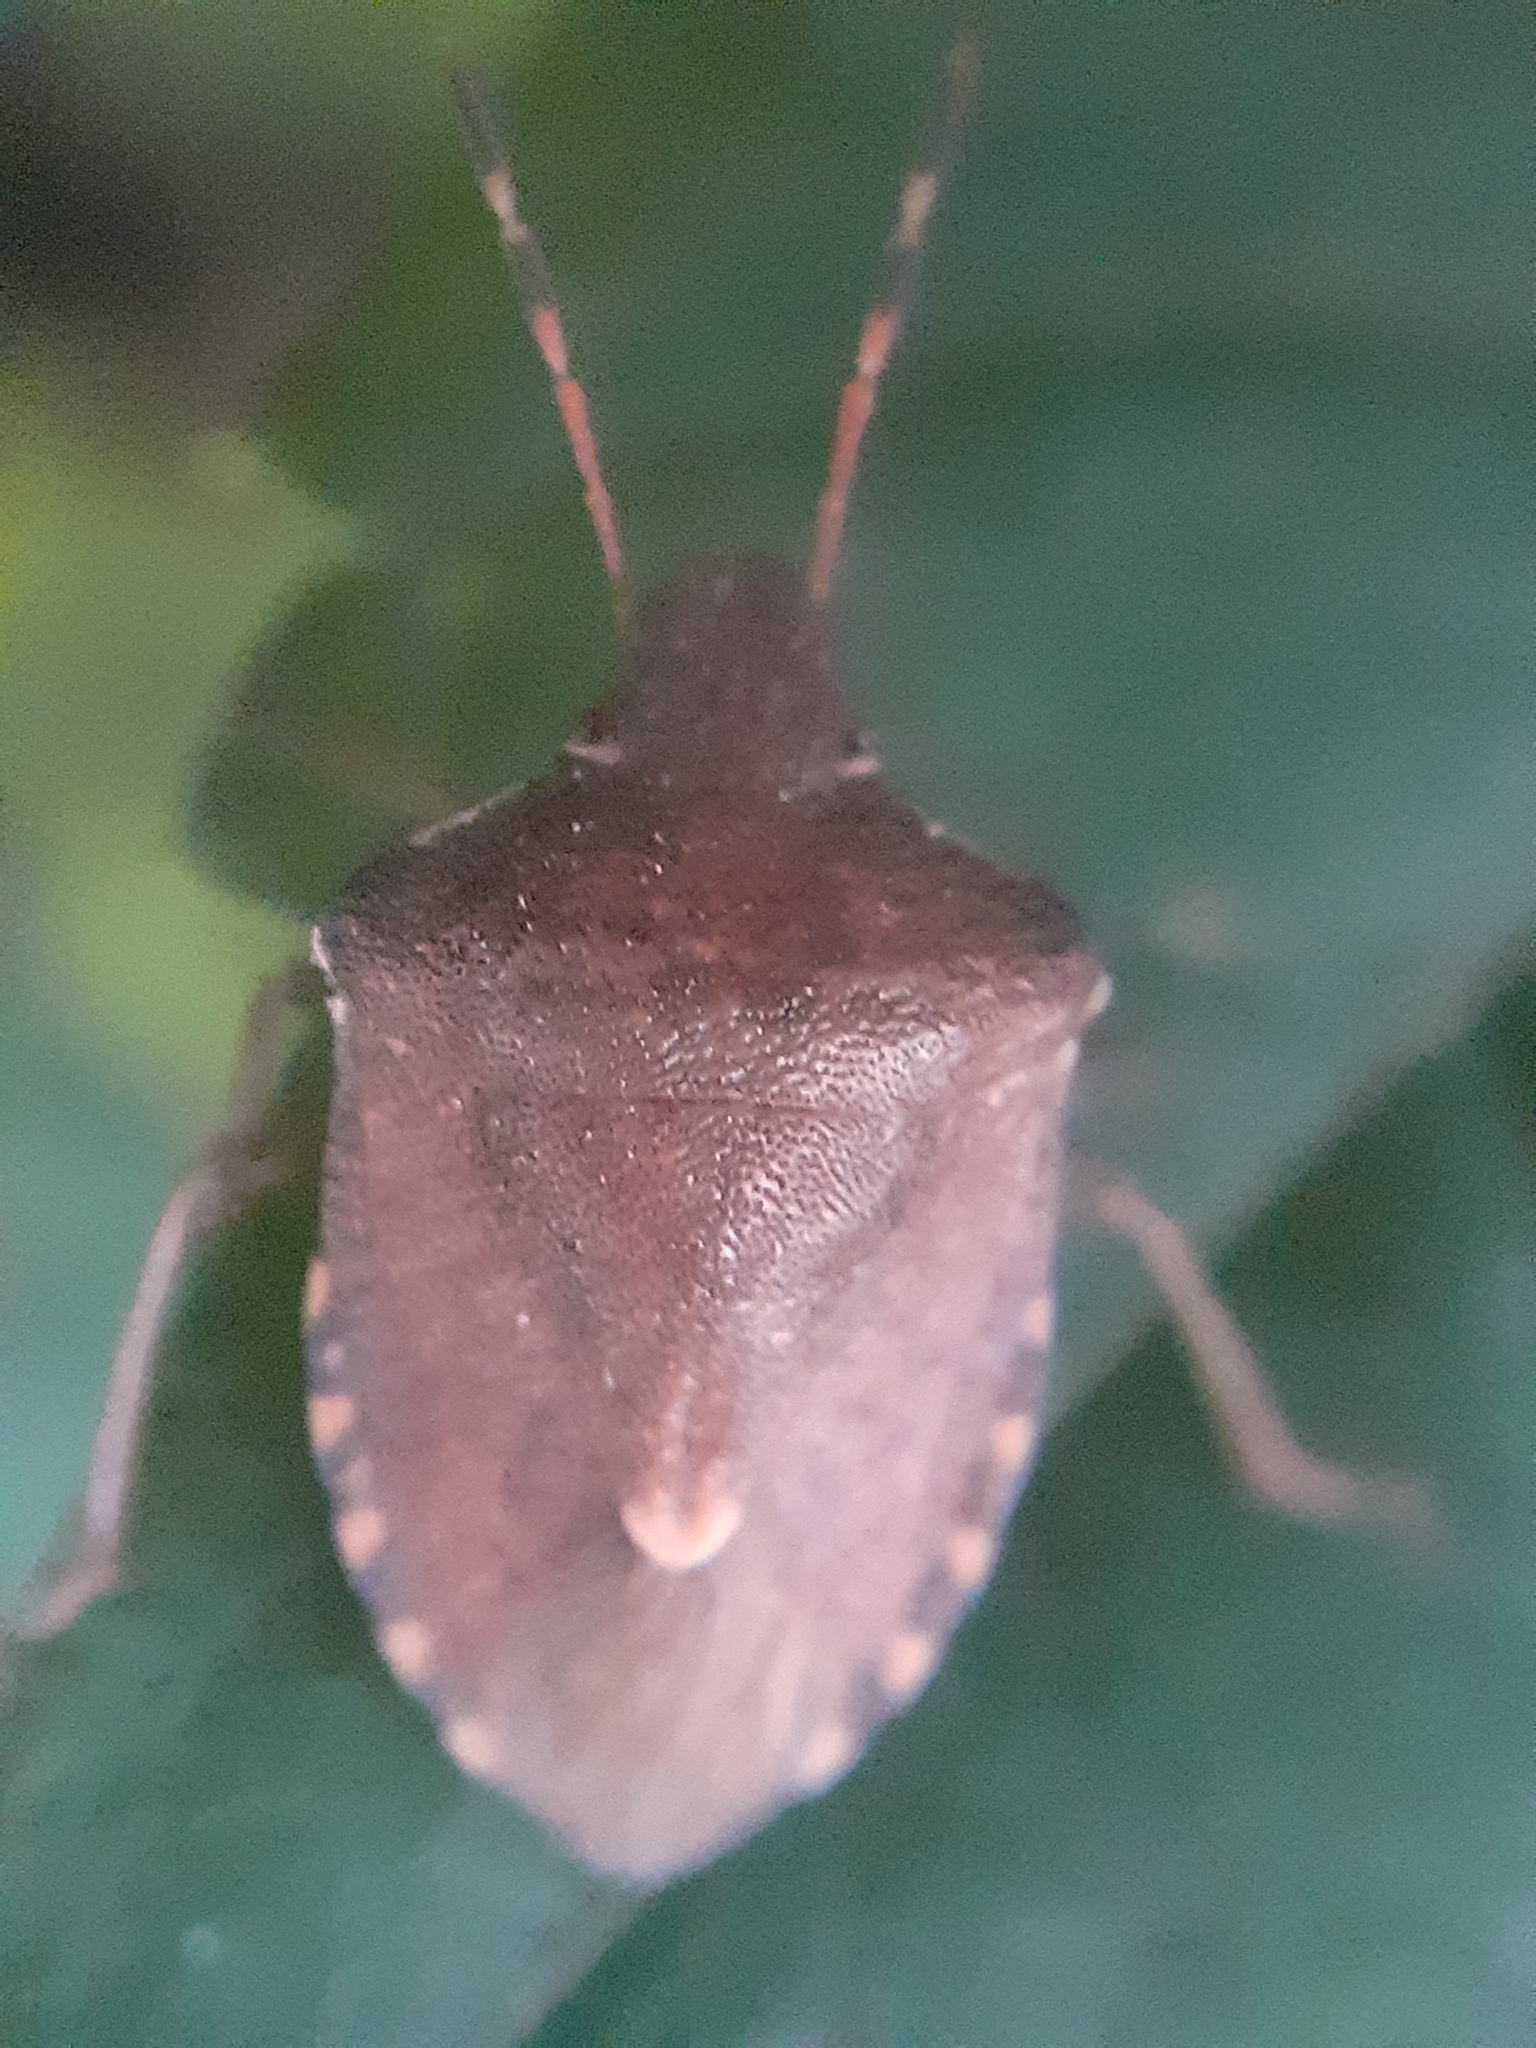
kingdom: Animalia
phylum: Arthropoda
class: Insecta
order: Hemiptera
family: Pentatomidae
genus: Holcostethus
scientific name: Holcostethus strictus
